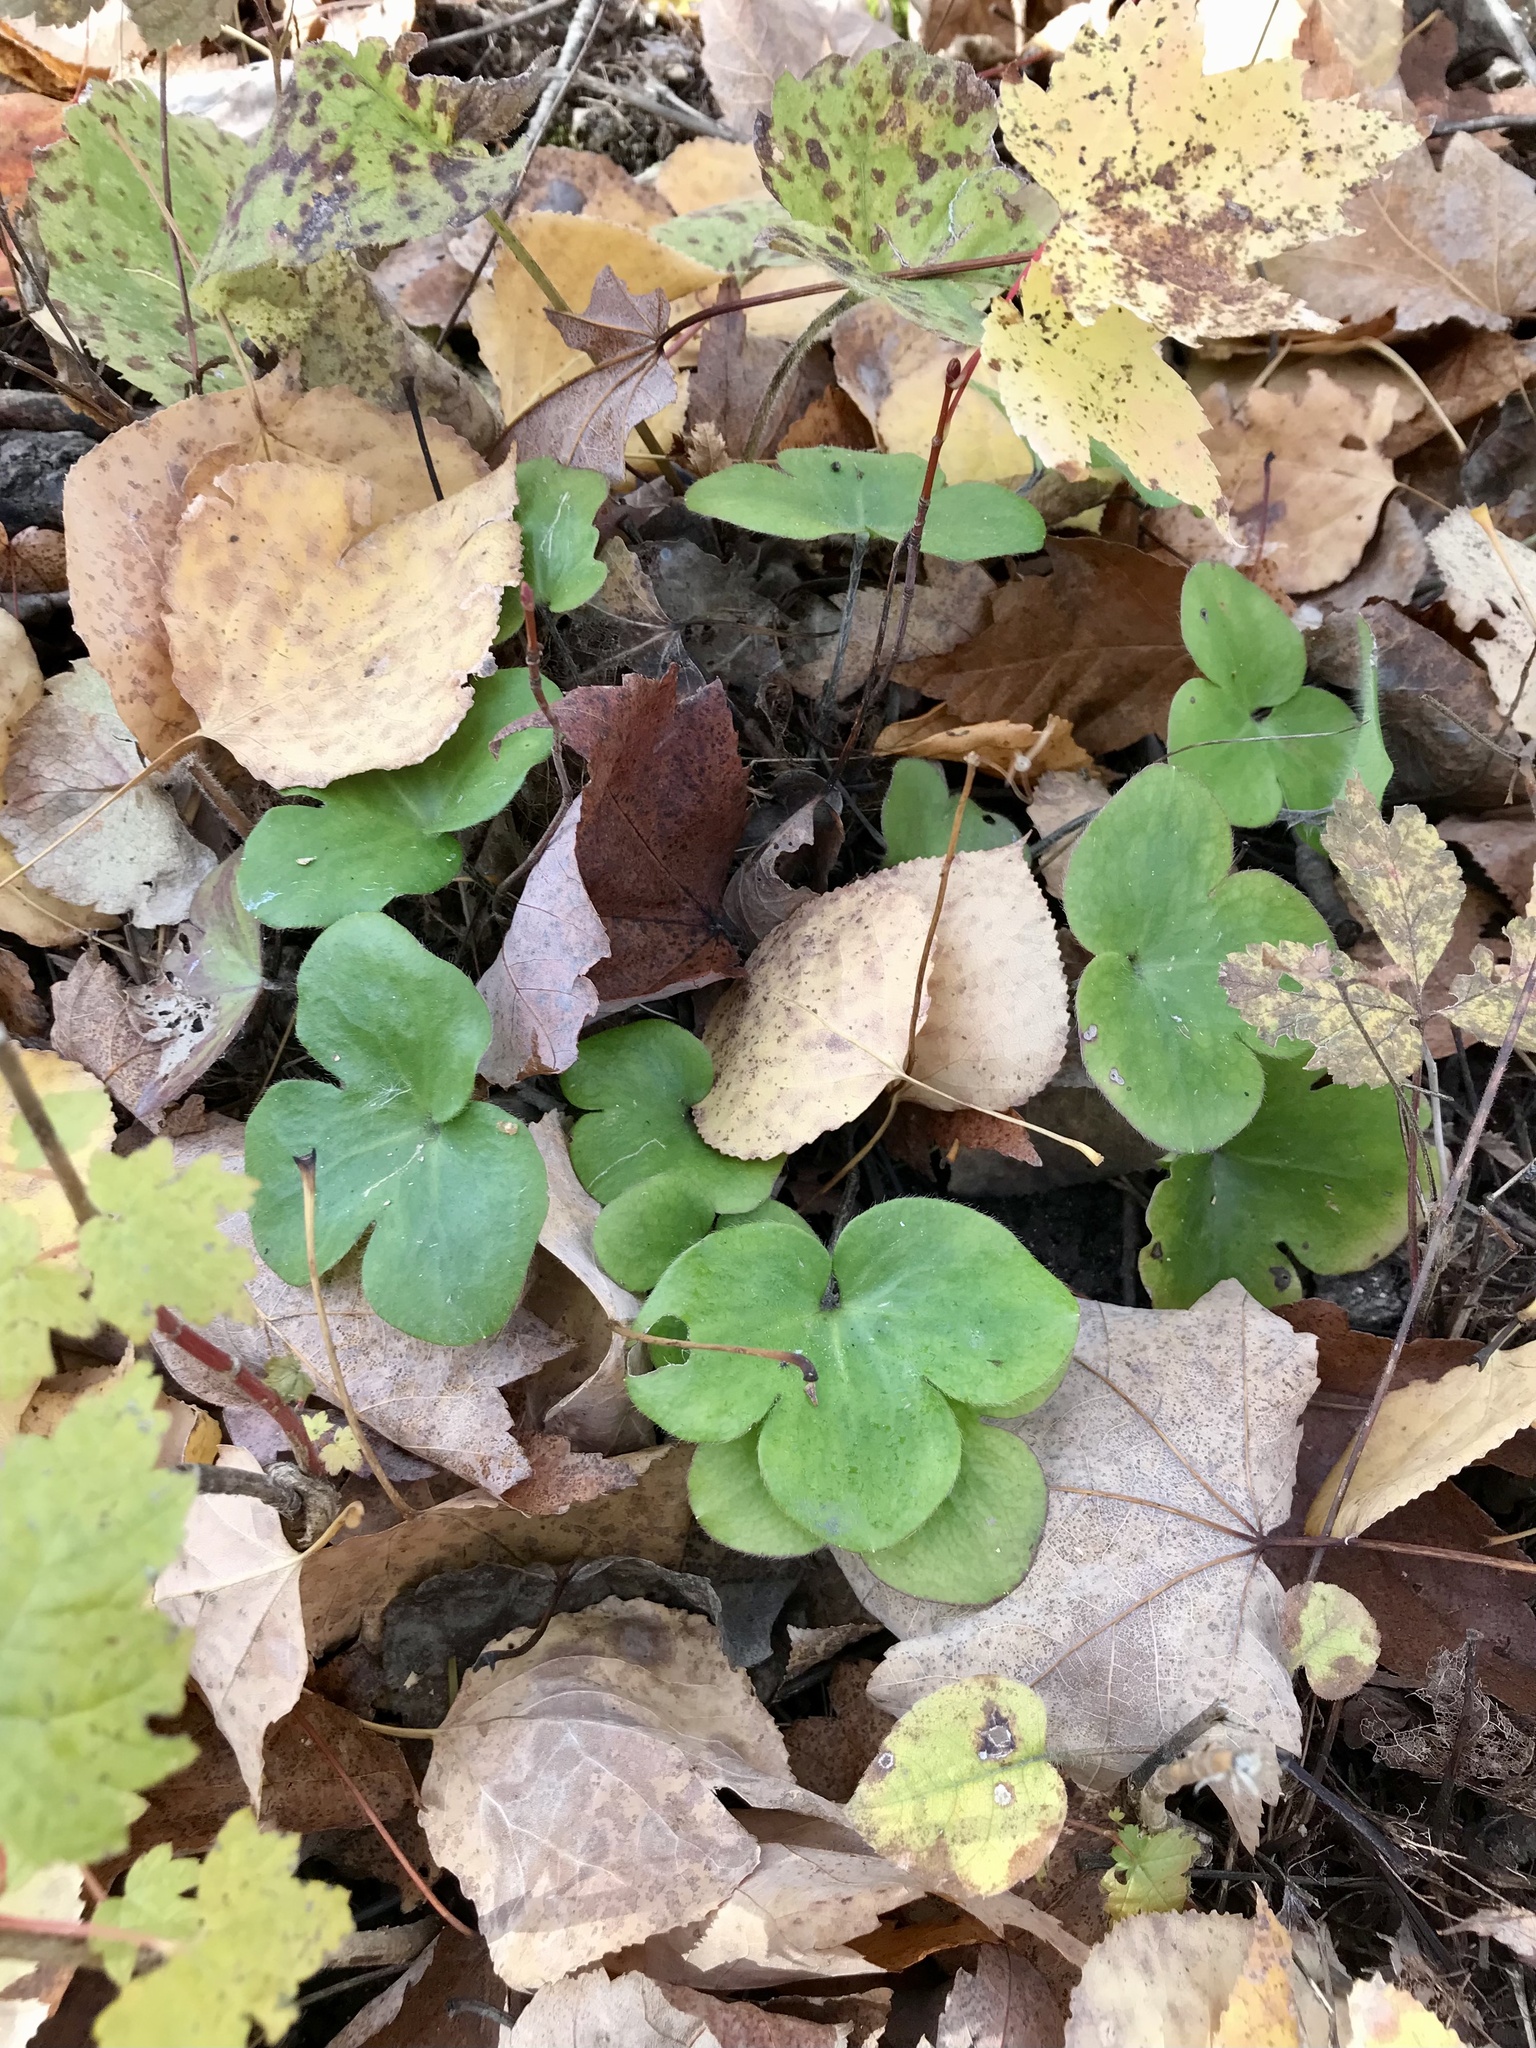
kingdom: Plantae
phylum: Tracheophyta
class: Magnoliopsida
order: Ranunculales
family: Ranunculaceae
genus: Hepatica
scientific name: Hepatica americana
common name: American hepatica
